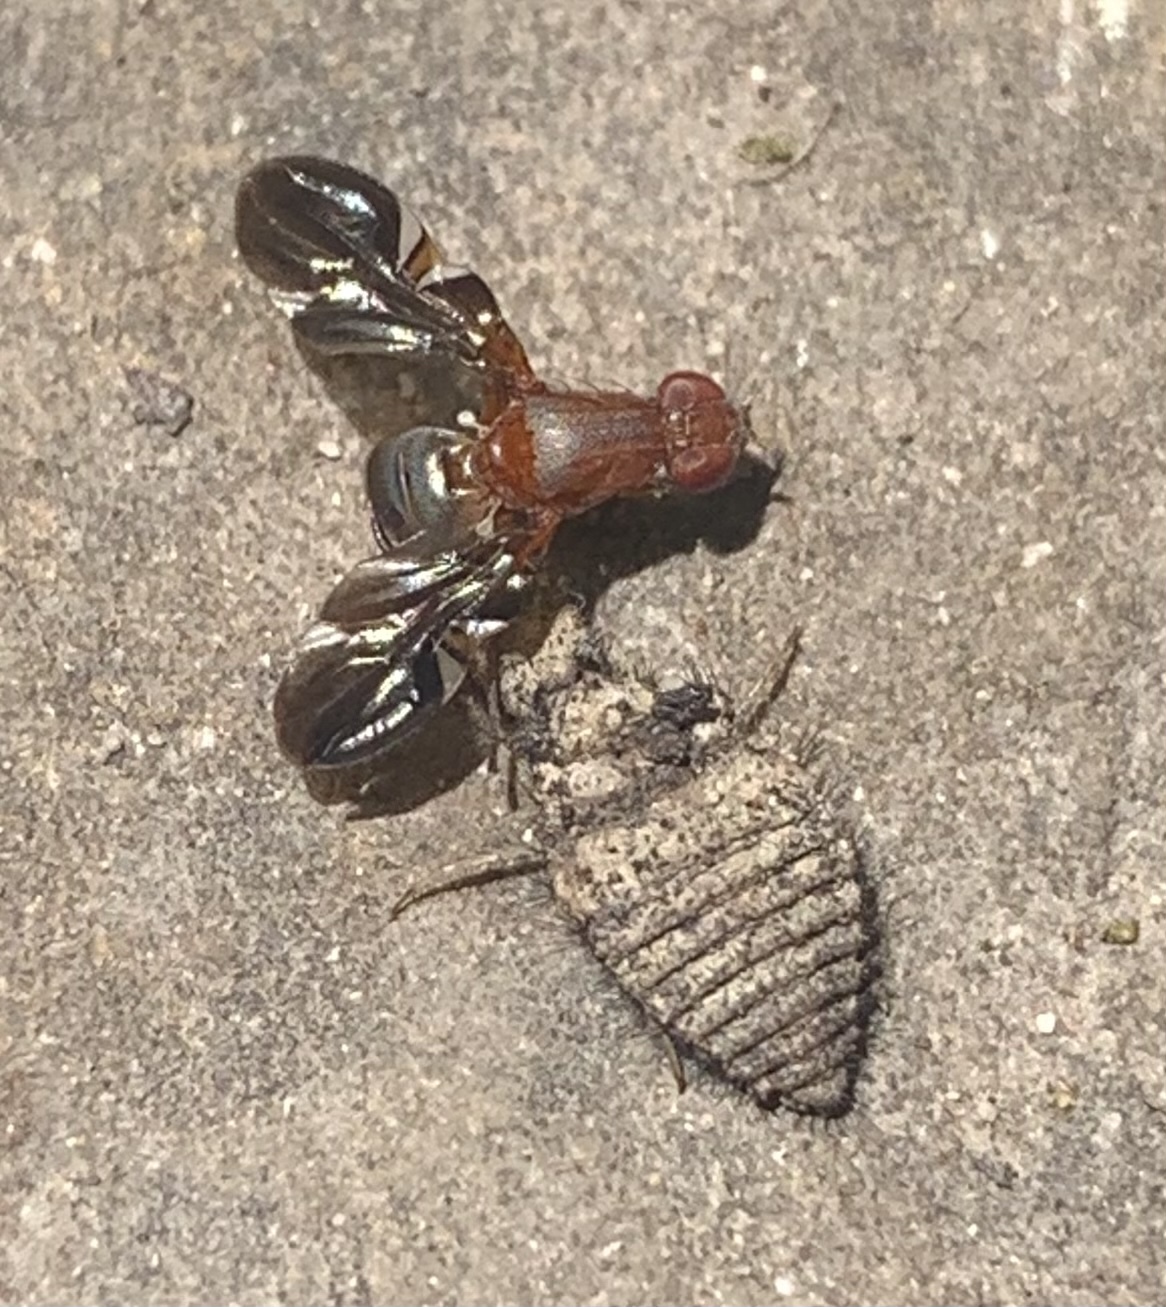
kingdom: Animalia
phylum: Arthropoda
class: Insecta
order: Diptera
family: Ulidiidae
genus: Delphinia
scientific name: Delphinia picta
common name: Common picture-winged fly
